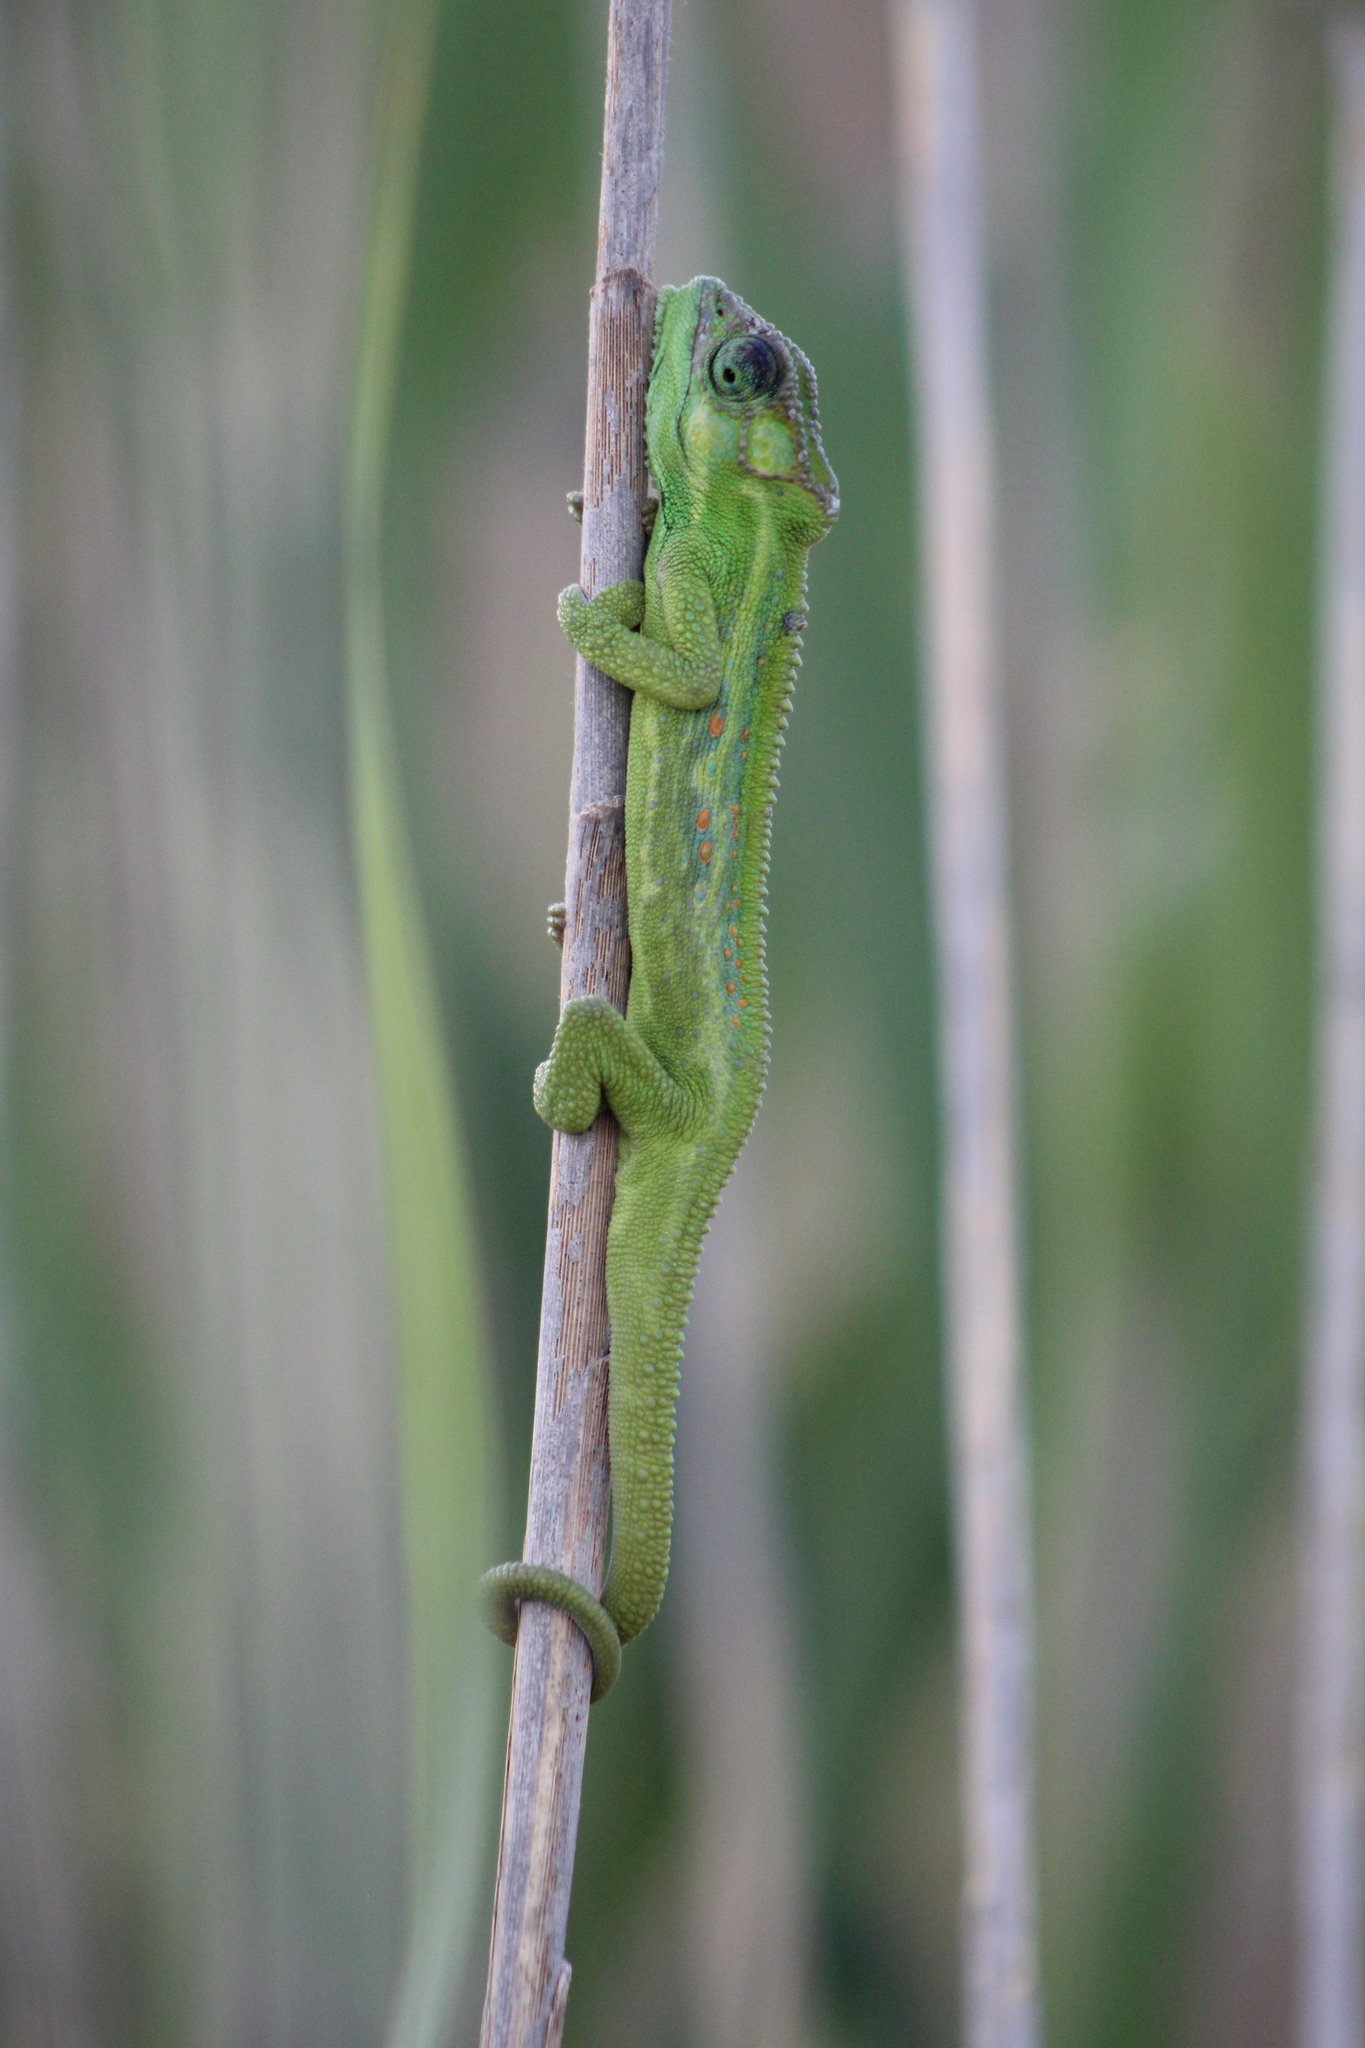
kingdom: Animalia
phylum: Chordata
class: Squamata
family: Chamaeleonidae
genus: Bradypodion
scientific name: Bradypodion pumilum
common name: Cape dwarf chameleon
